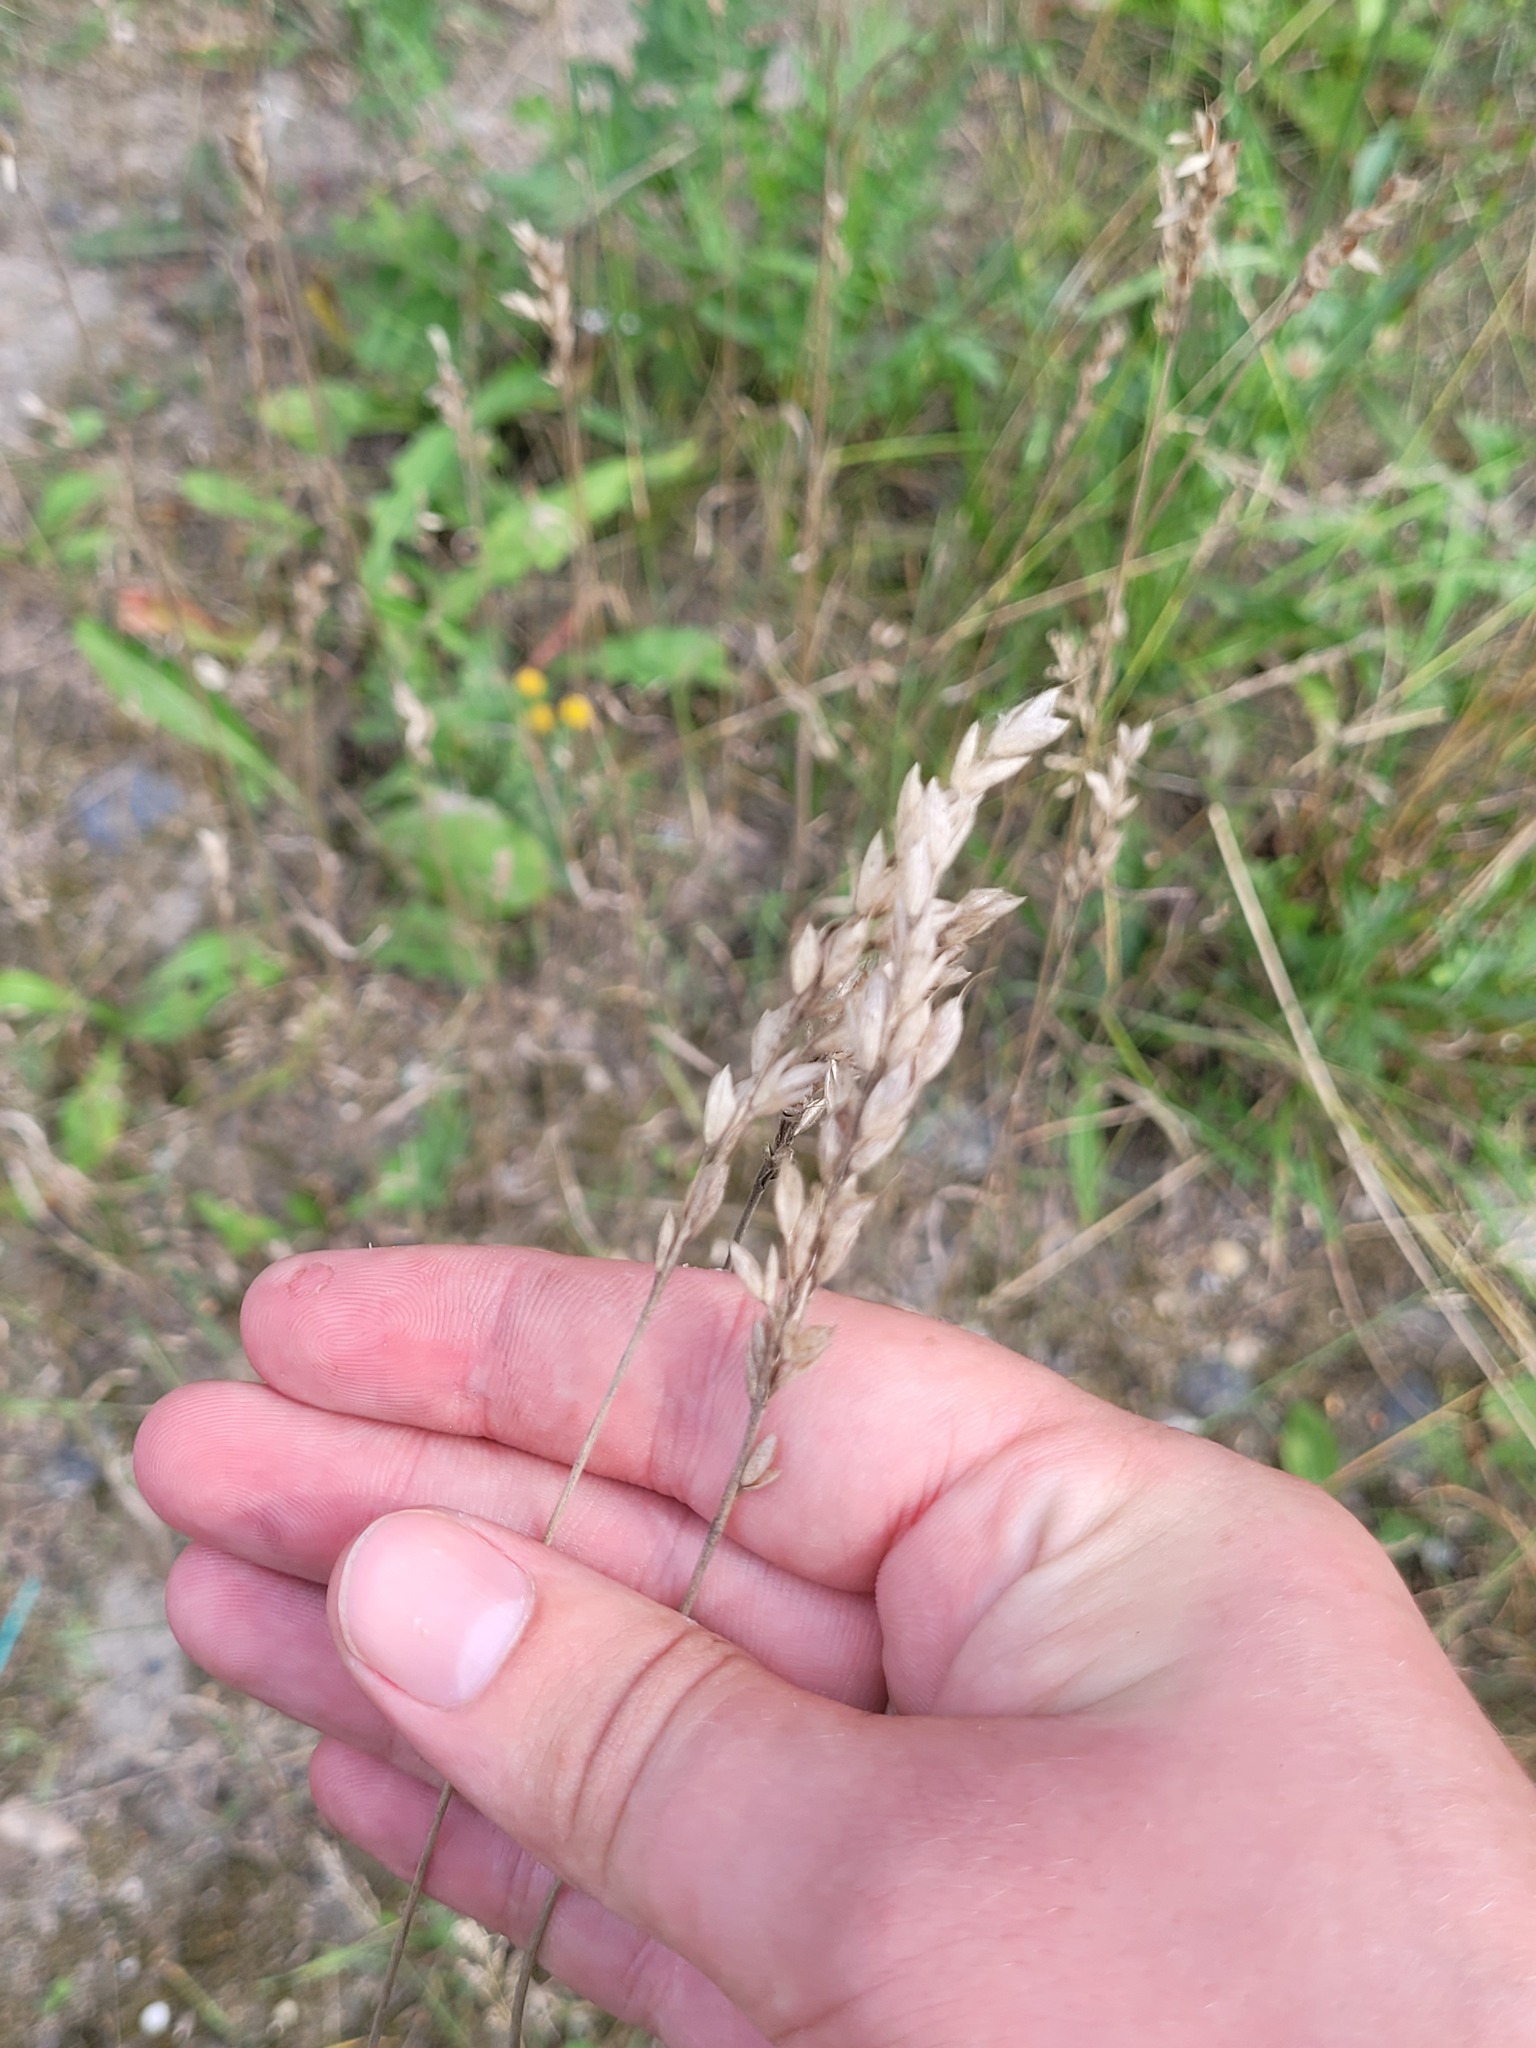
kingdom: Plantae
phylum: Tracheophyta
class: Liliopsida
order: Poales
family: Poaceae
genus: Bromus
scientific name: Bromus hordeaceus
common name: Soft brome
